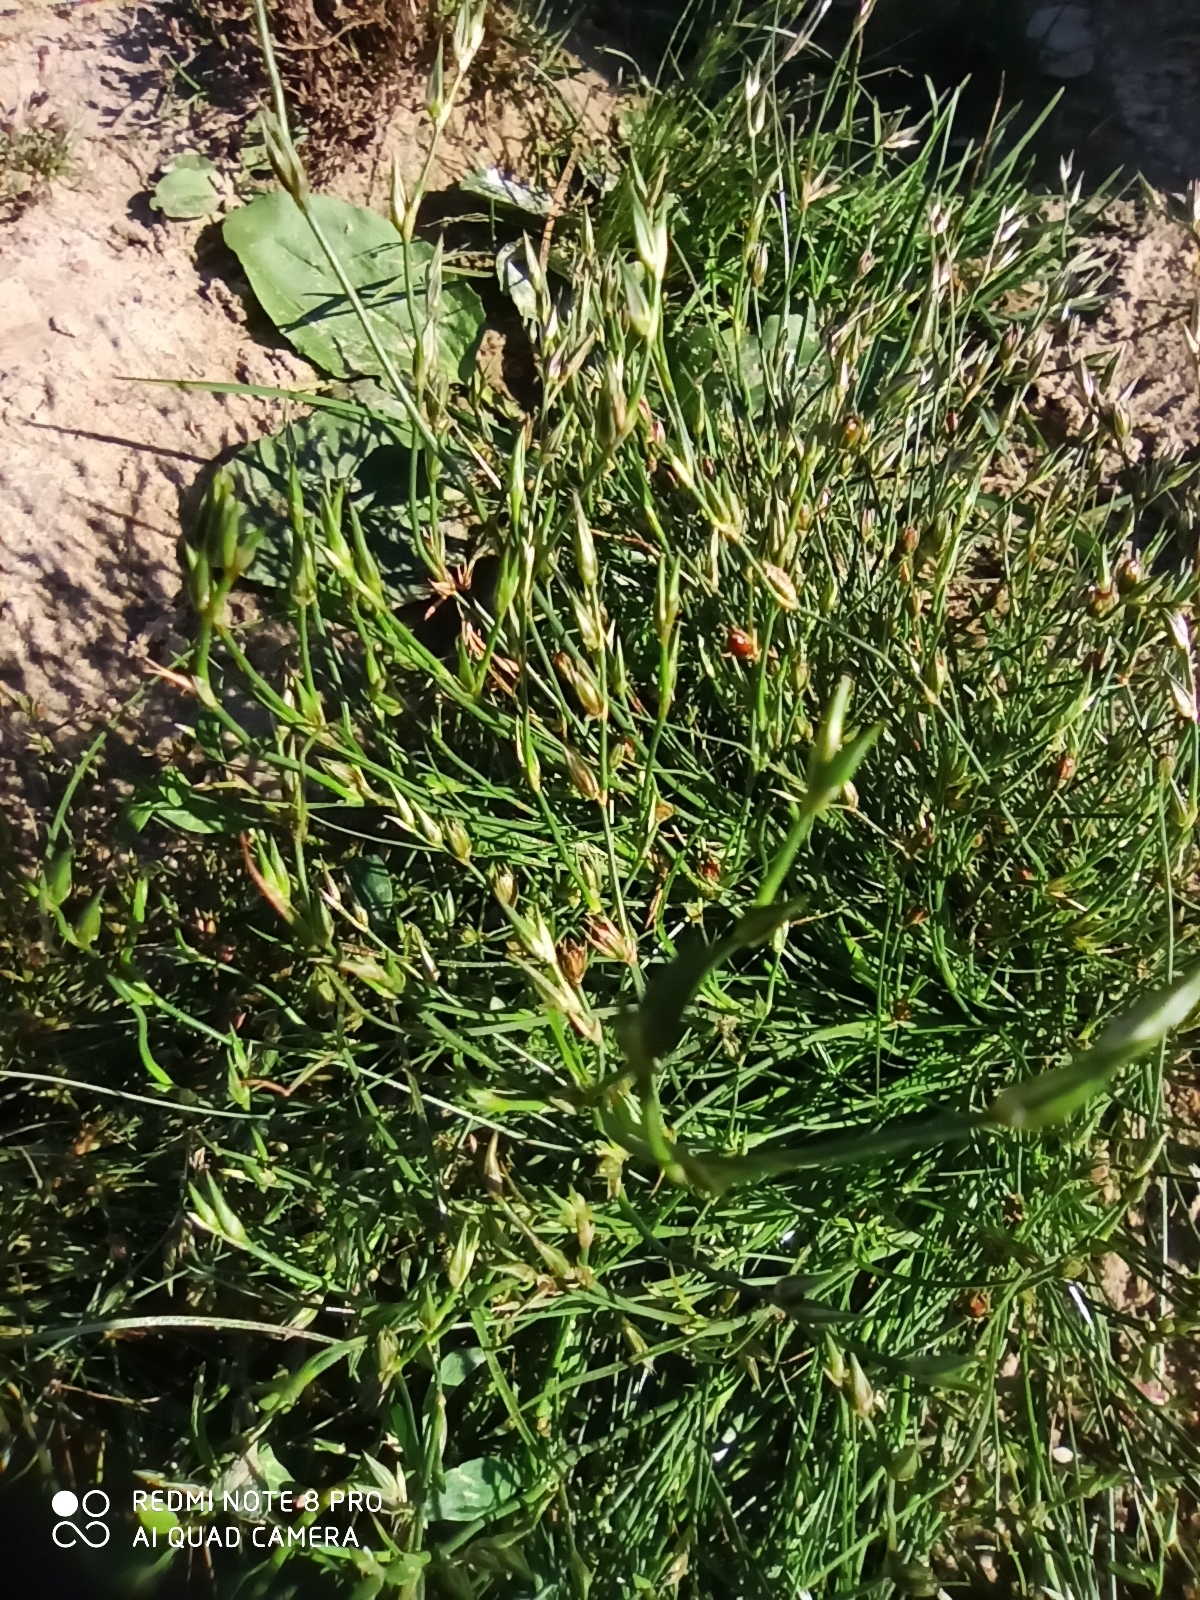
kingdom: Plantae
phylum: Tracheophyta
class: Liliopsida
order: Poales
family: Juncaceae
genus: Juncus
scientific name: Juncus bufonius
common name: Toad rush
